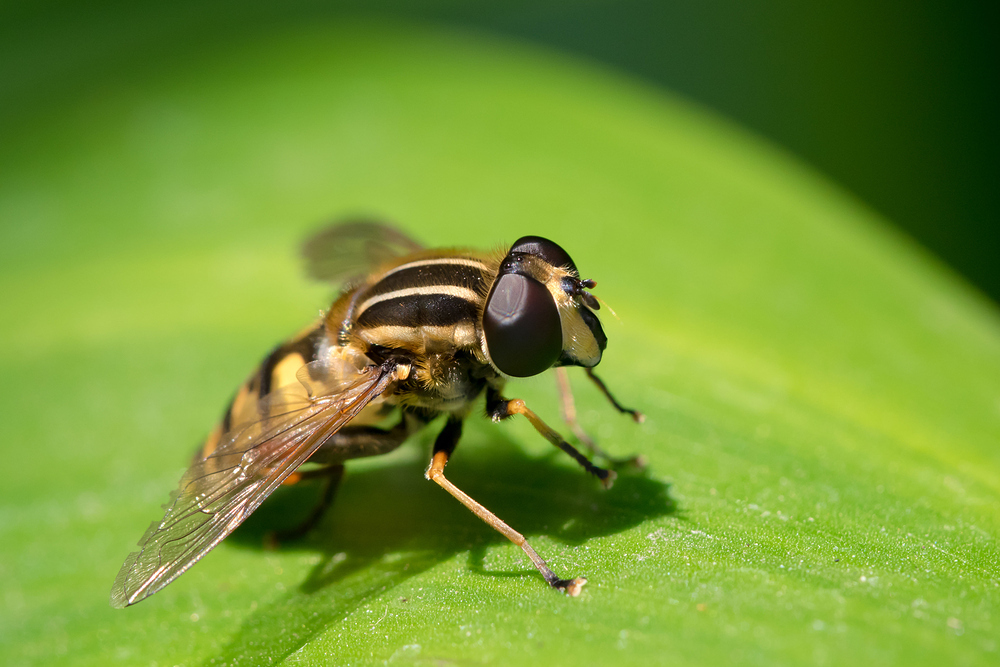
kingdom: Animalia
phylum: Arthropoda
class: Insecta
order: Diptera
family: Syrphidae
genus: Helophilus
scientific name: Helophilus pendulus
